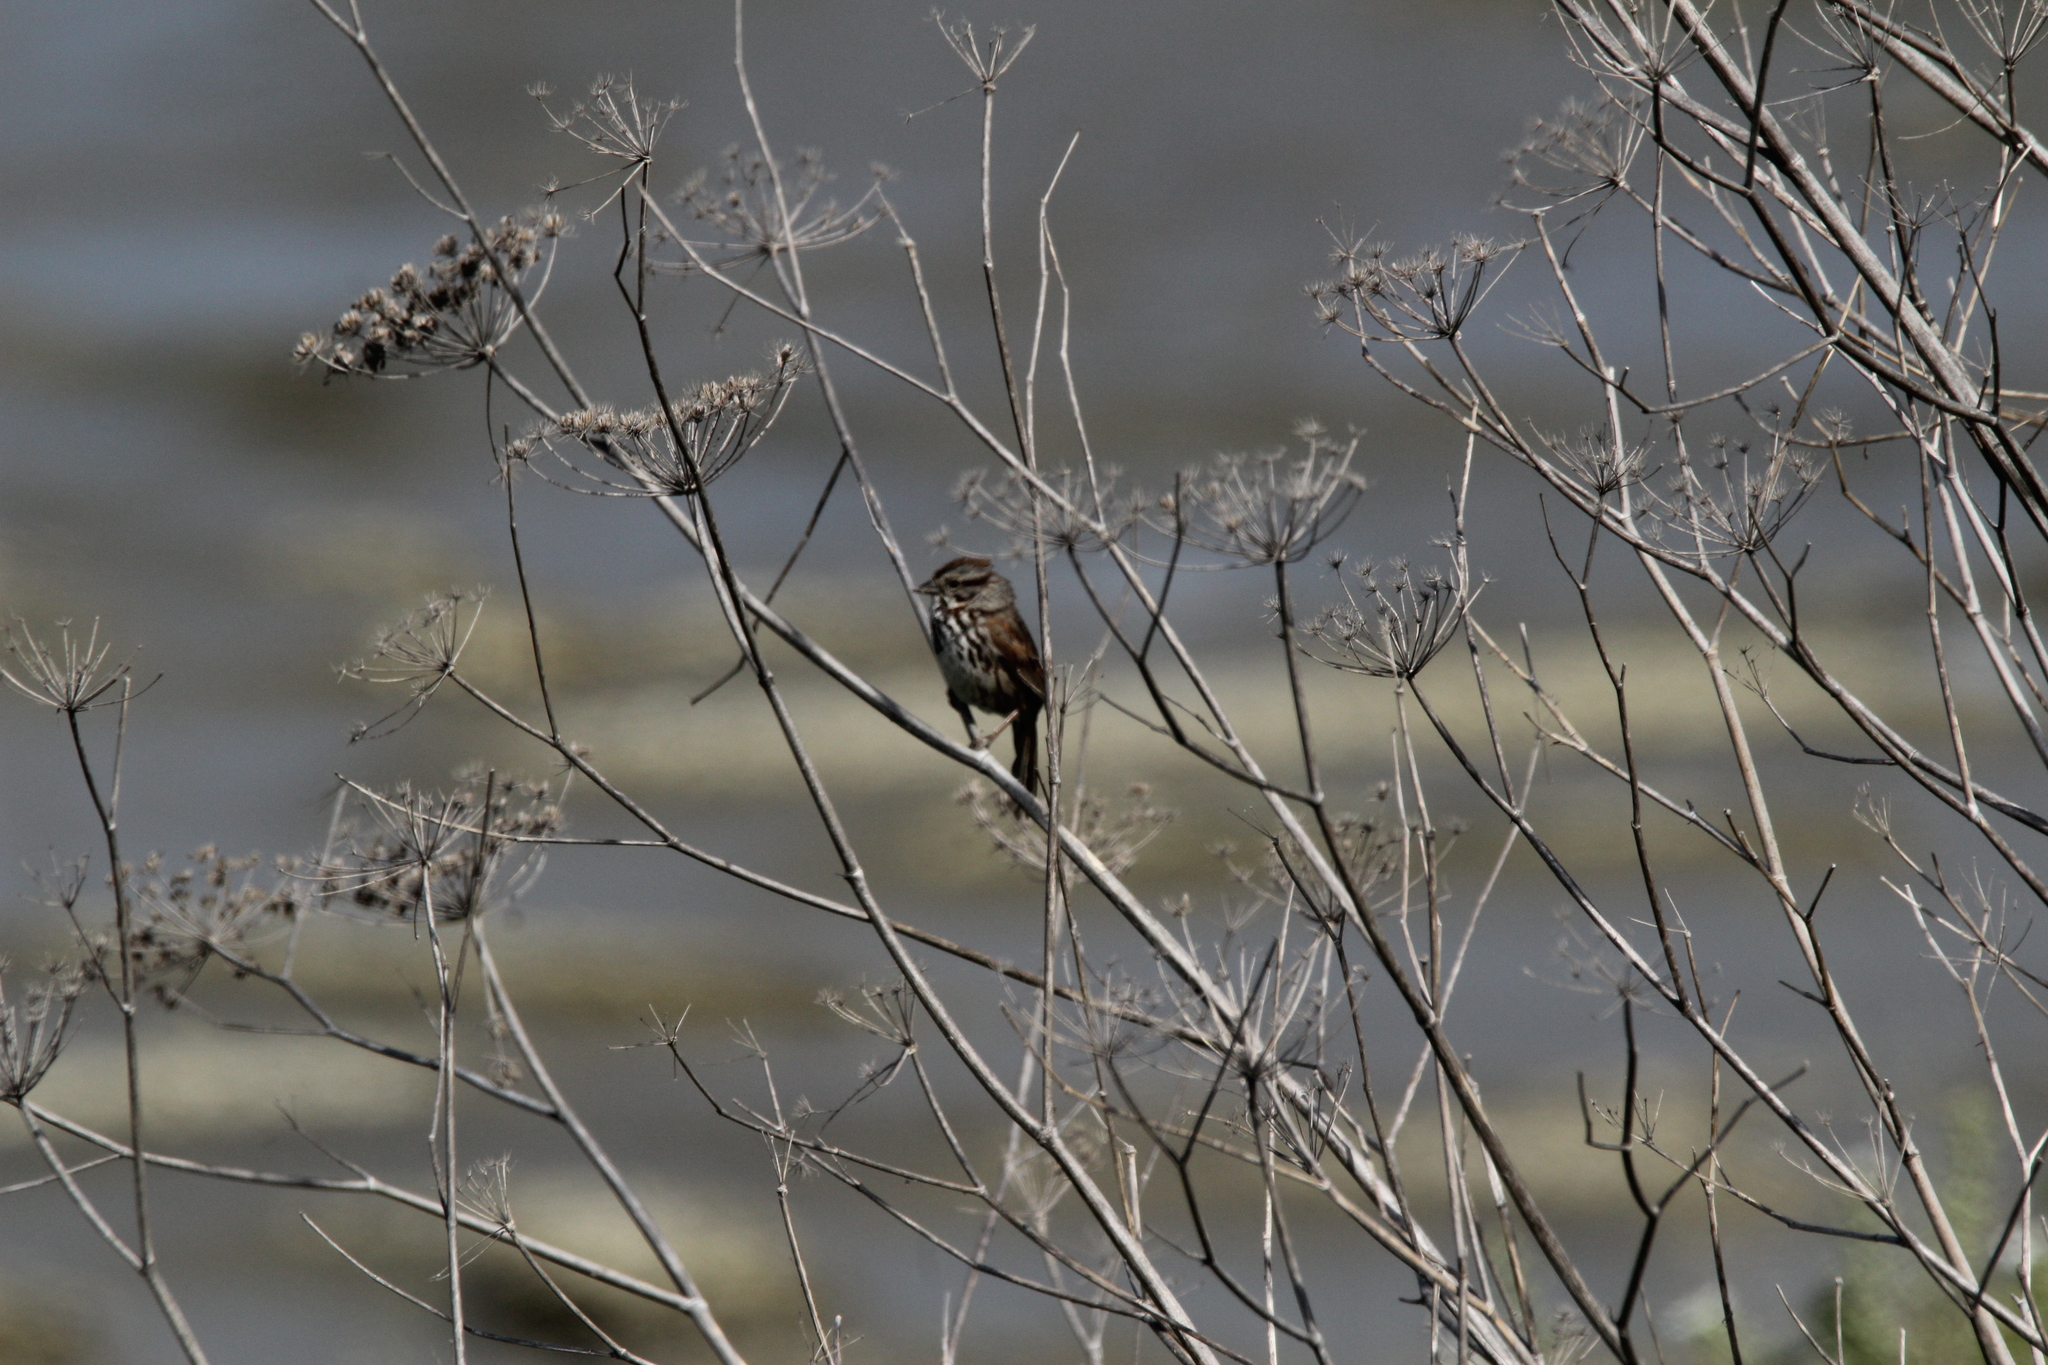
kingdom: Animalia
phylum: Chordata
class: Aves
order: Passeriformes
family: Passerellidae
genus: Melospiza
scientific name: Melospiza melodia
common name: Song sparrow
